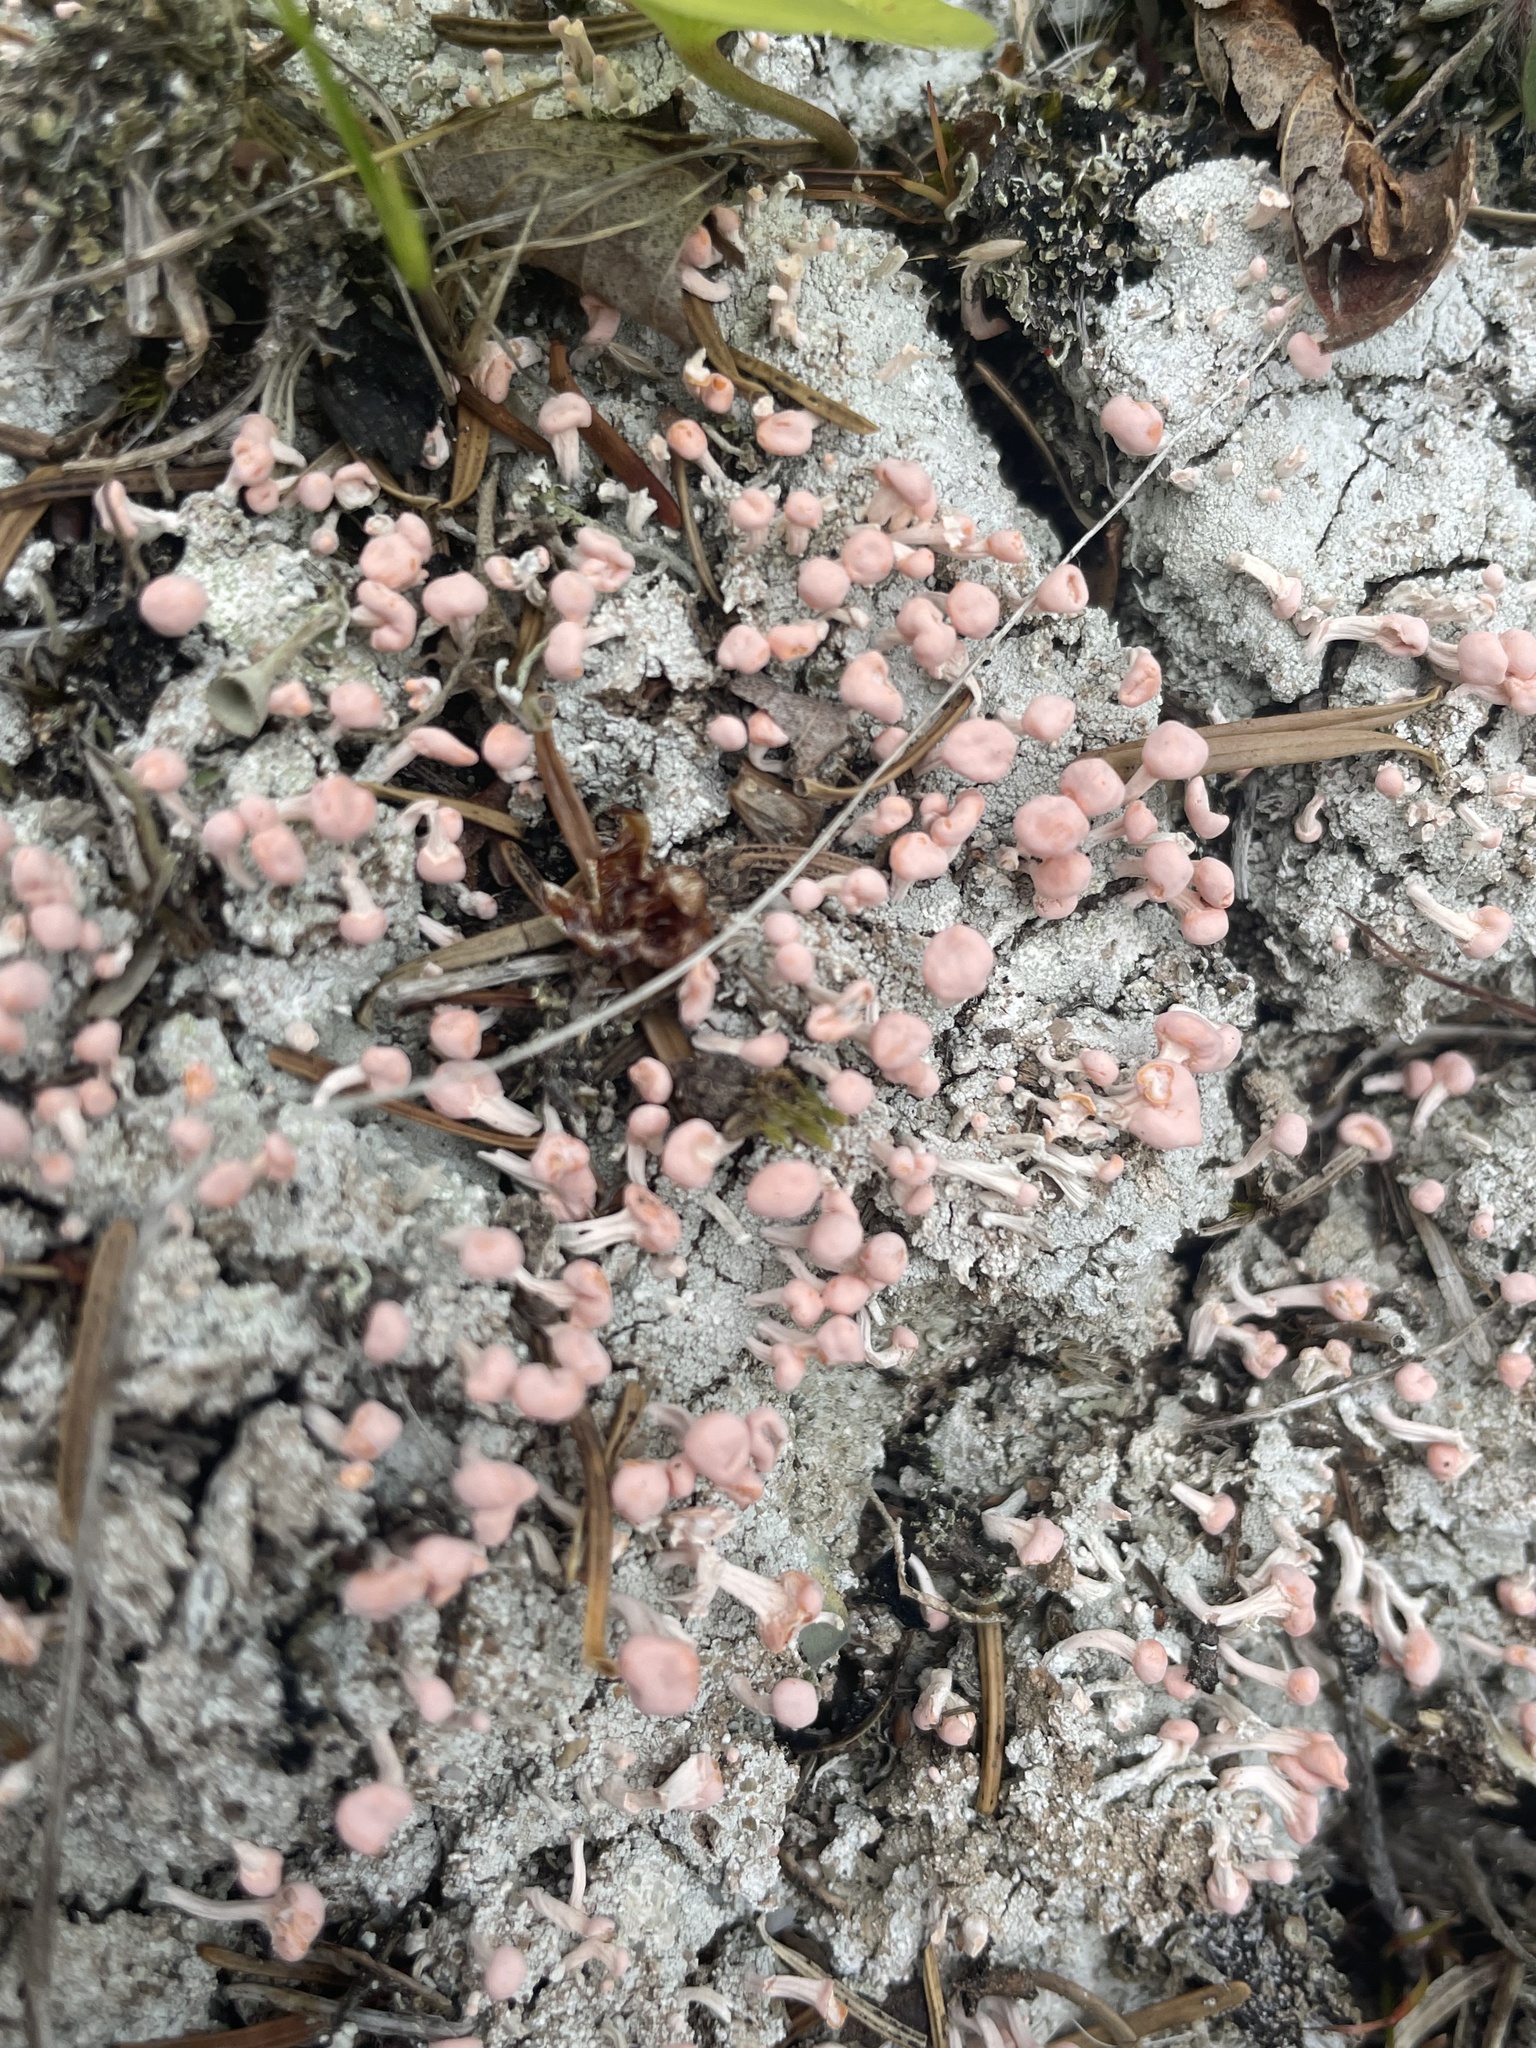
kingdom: Fungi
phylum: Ascomycota
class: Lecanoromycetes
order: Pertusariales
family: Icmadophilaceae
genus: Dibaeis
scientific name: Dibaeis baeomyces
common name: Pink earth lichen
